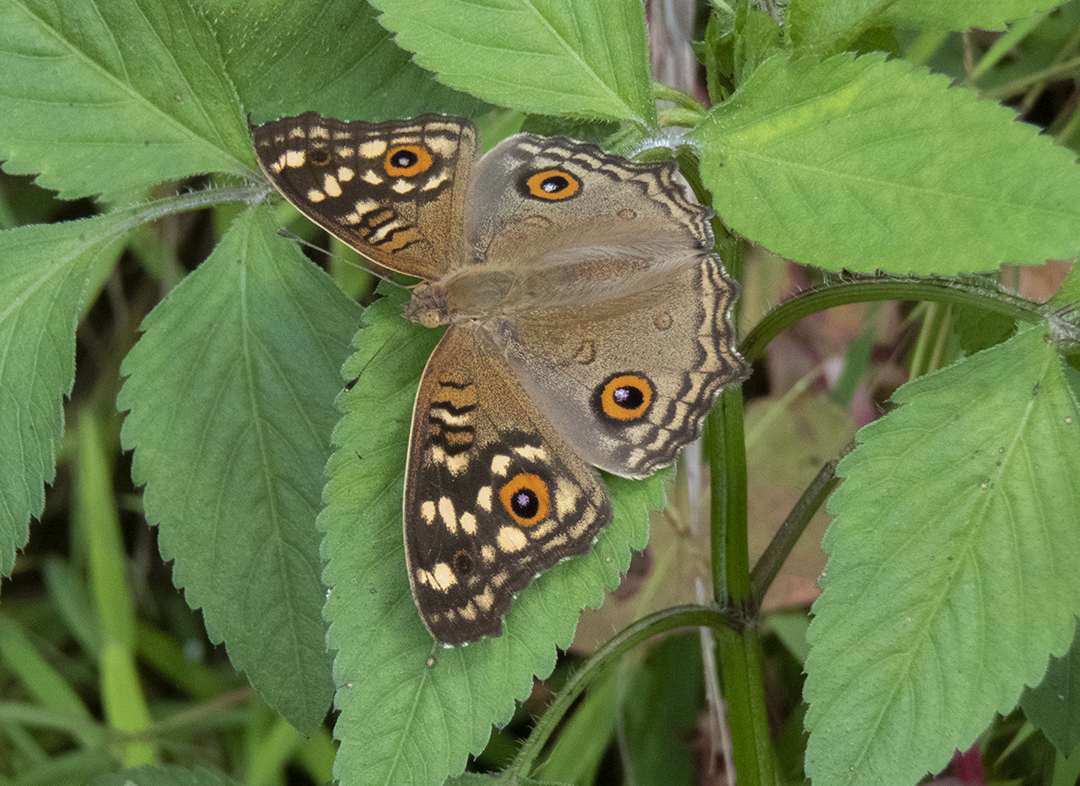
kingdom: Animalia
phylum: Arthropoda
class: Insecta
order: Lepidoptera
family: Nymphalidae
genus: Junonia
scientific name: Junonia lemonias
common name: Lemon pansy
